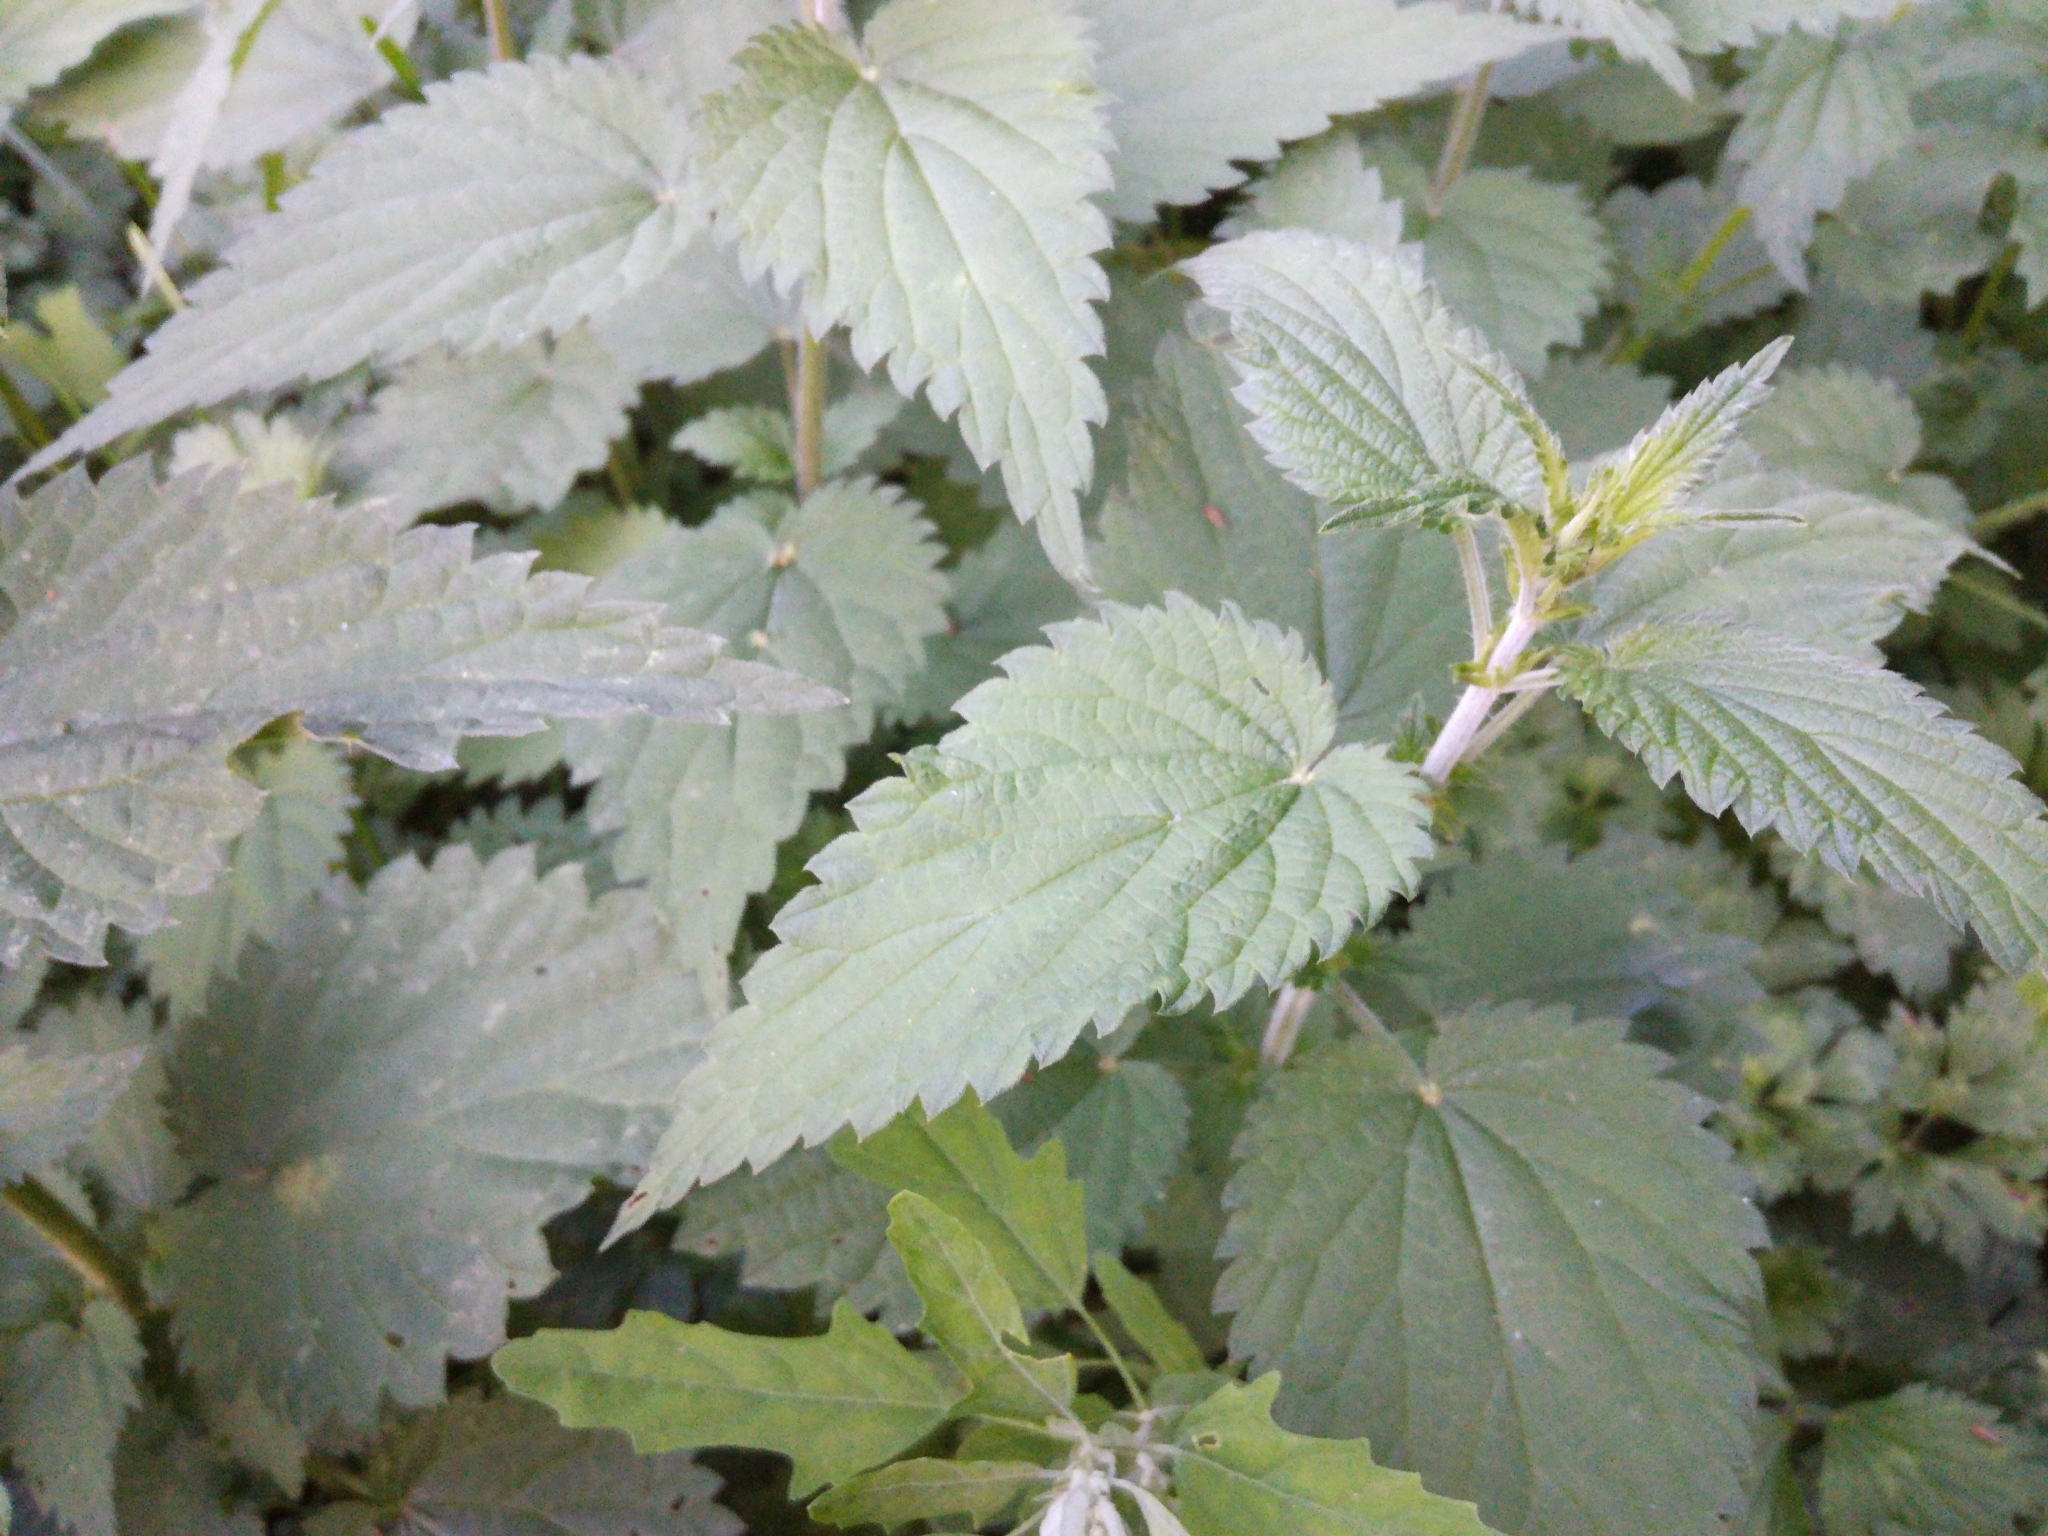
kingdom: Plantae
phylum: Tracheophyta
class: Magnoliopsida
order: Rosales
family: Urticaceae
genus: Urtica
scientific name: Urtica dioica
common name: Common nettle
